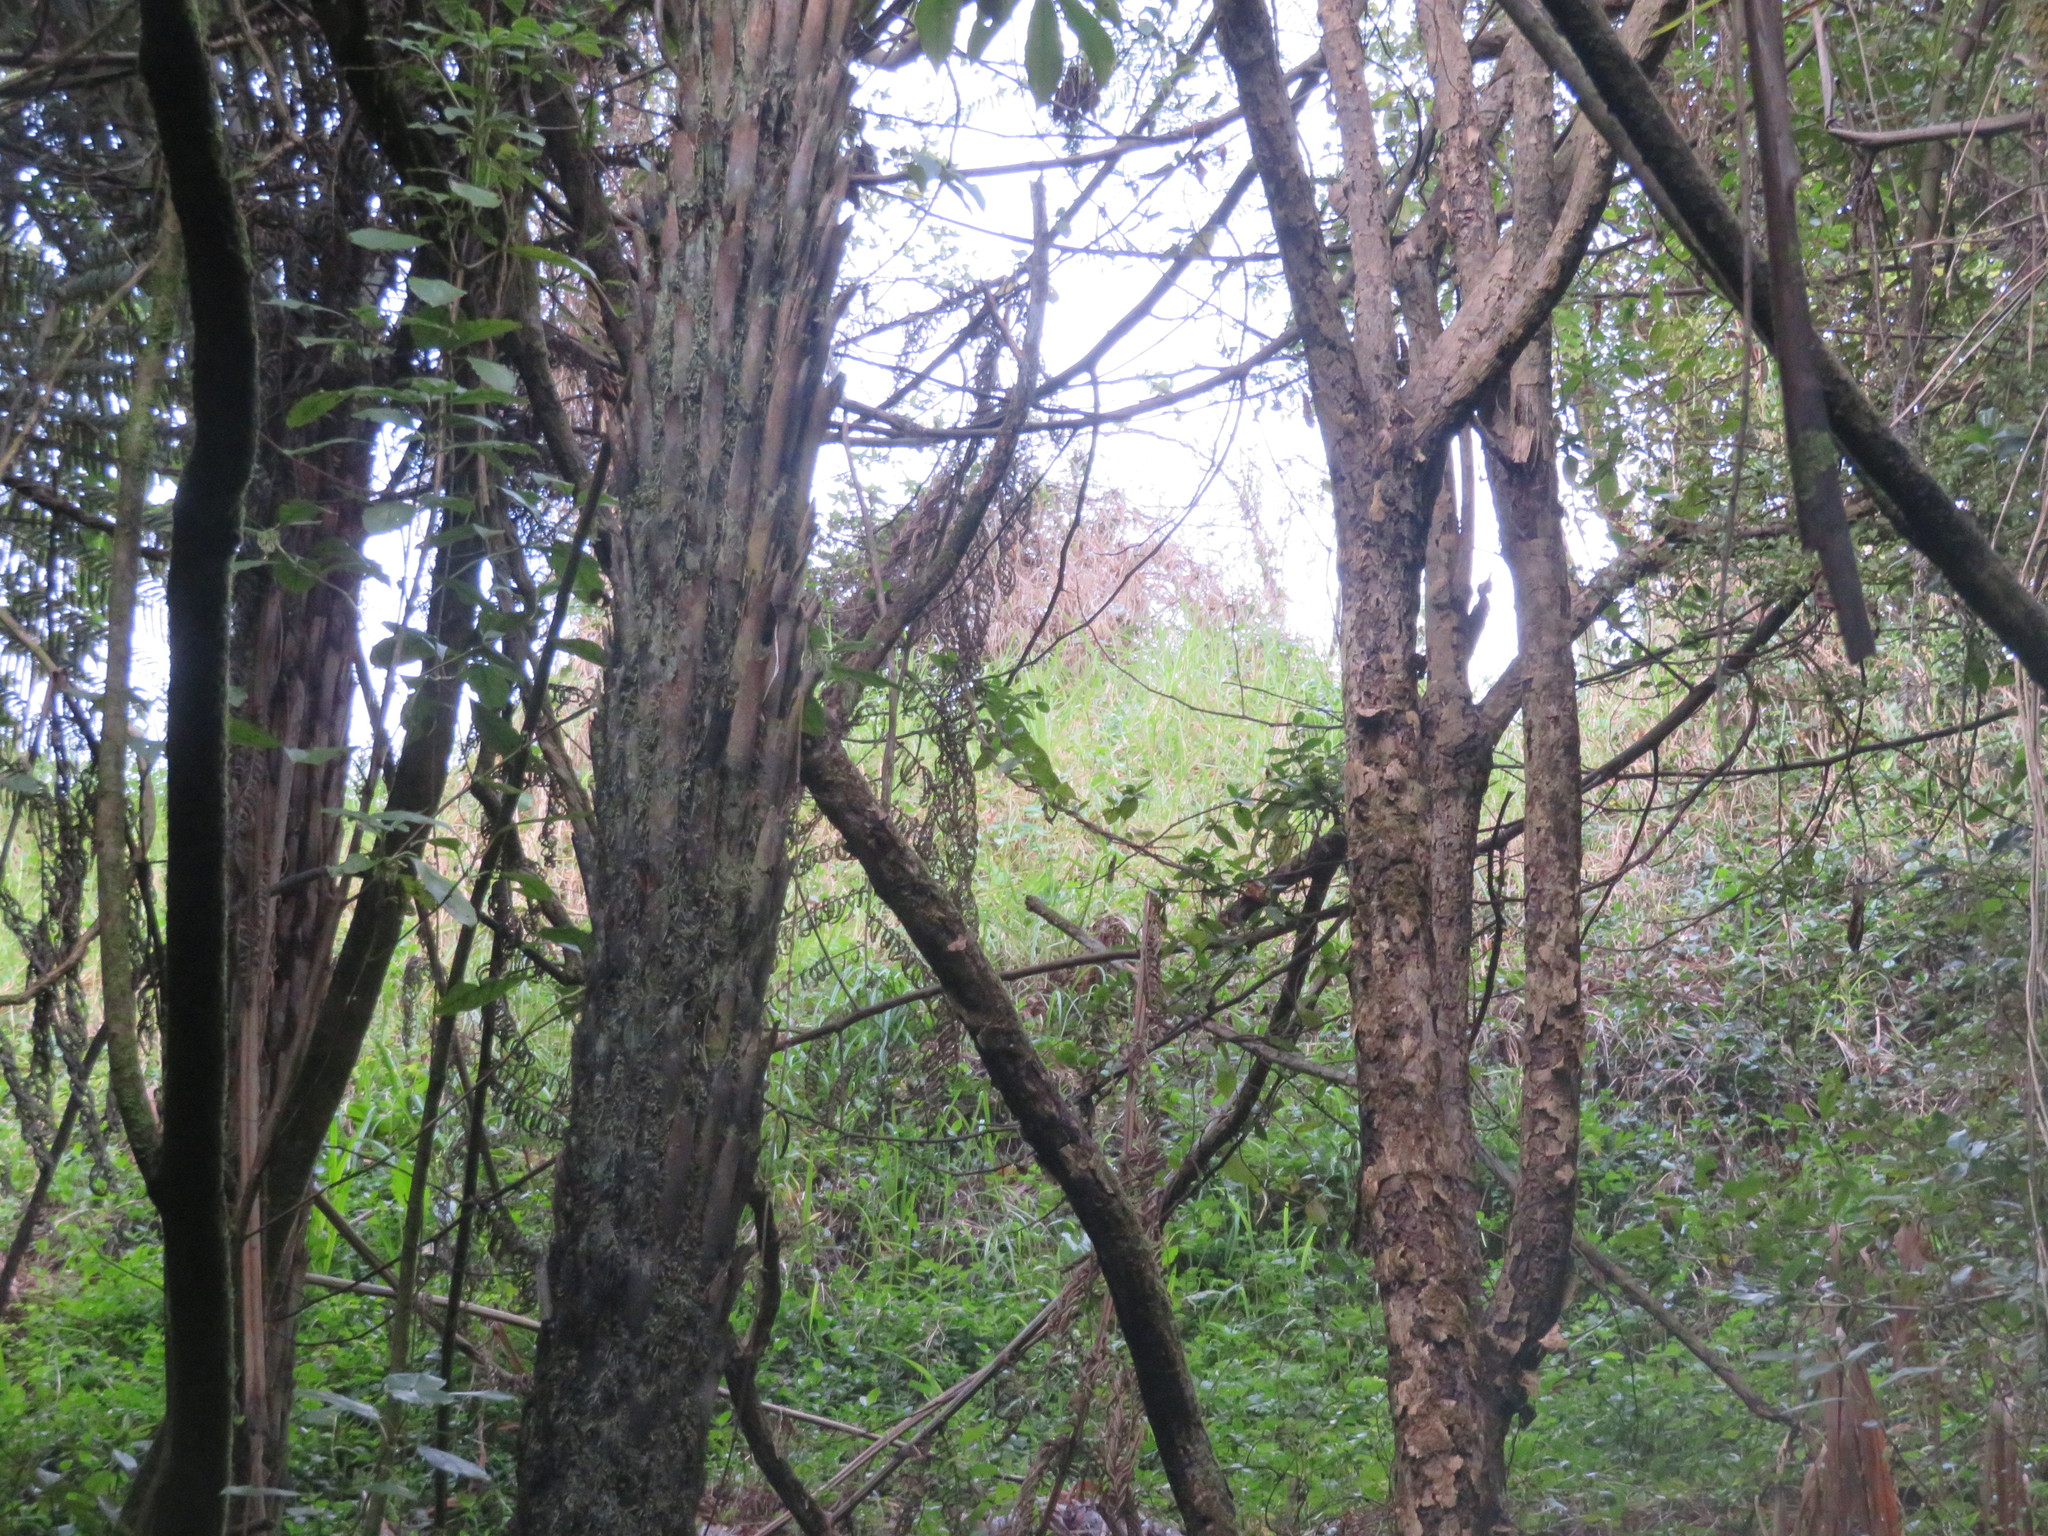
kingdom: Plantae
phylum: Tracheophyta
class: Liliopsida
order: Poales
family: Poaceae
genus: Cenchrus
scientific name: Cenchrus clandestinus
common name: Kikuyugrass
